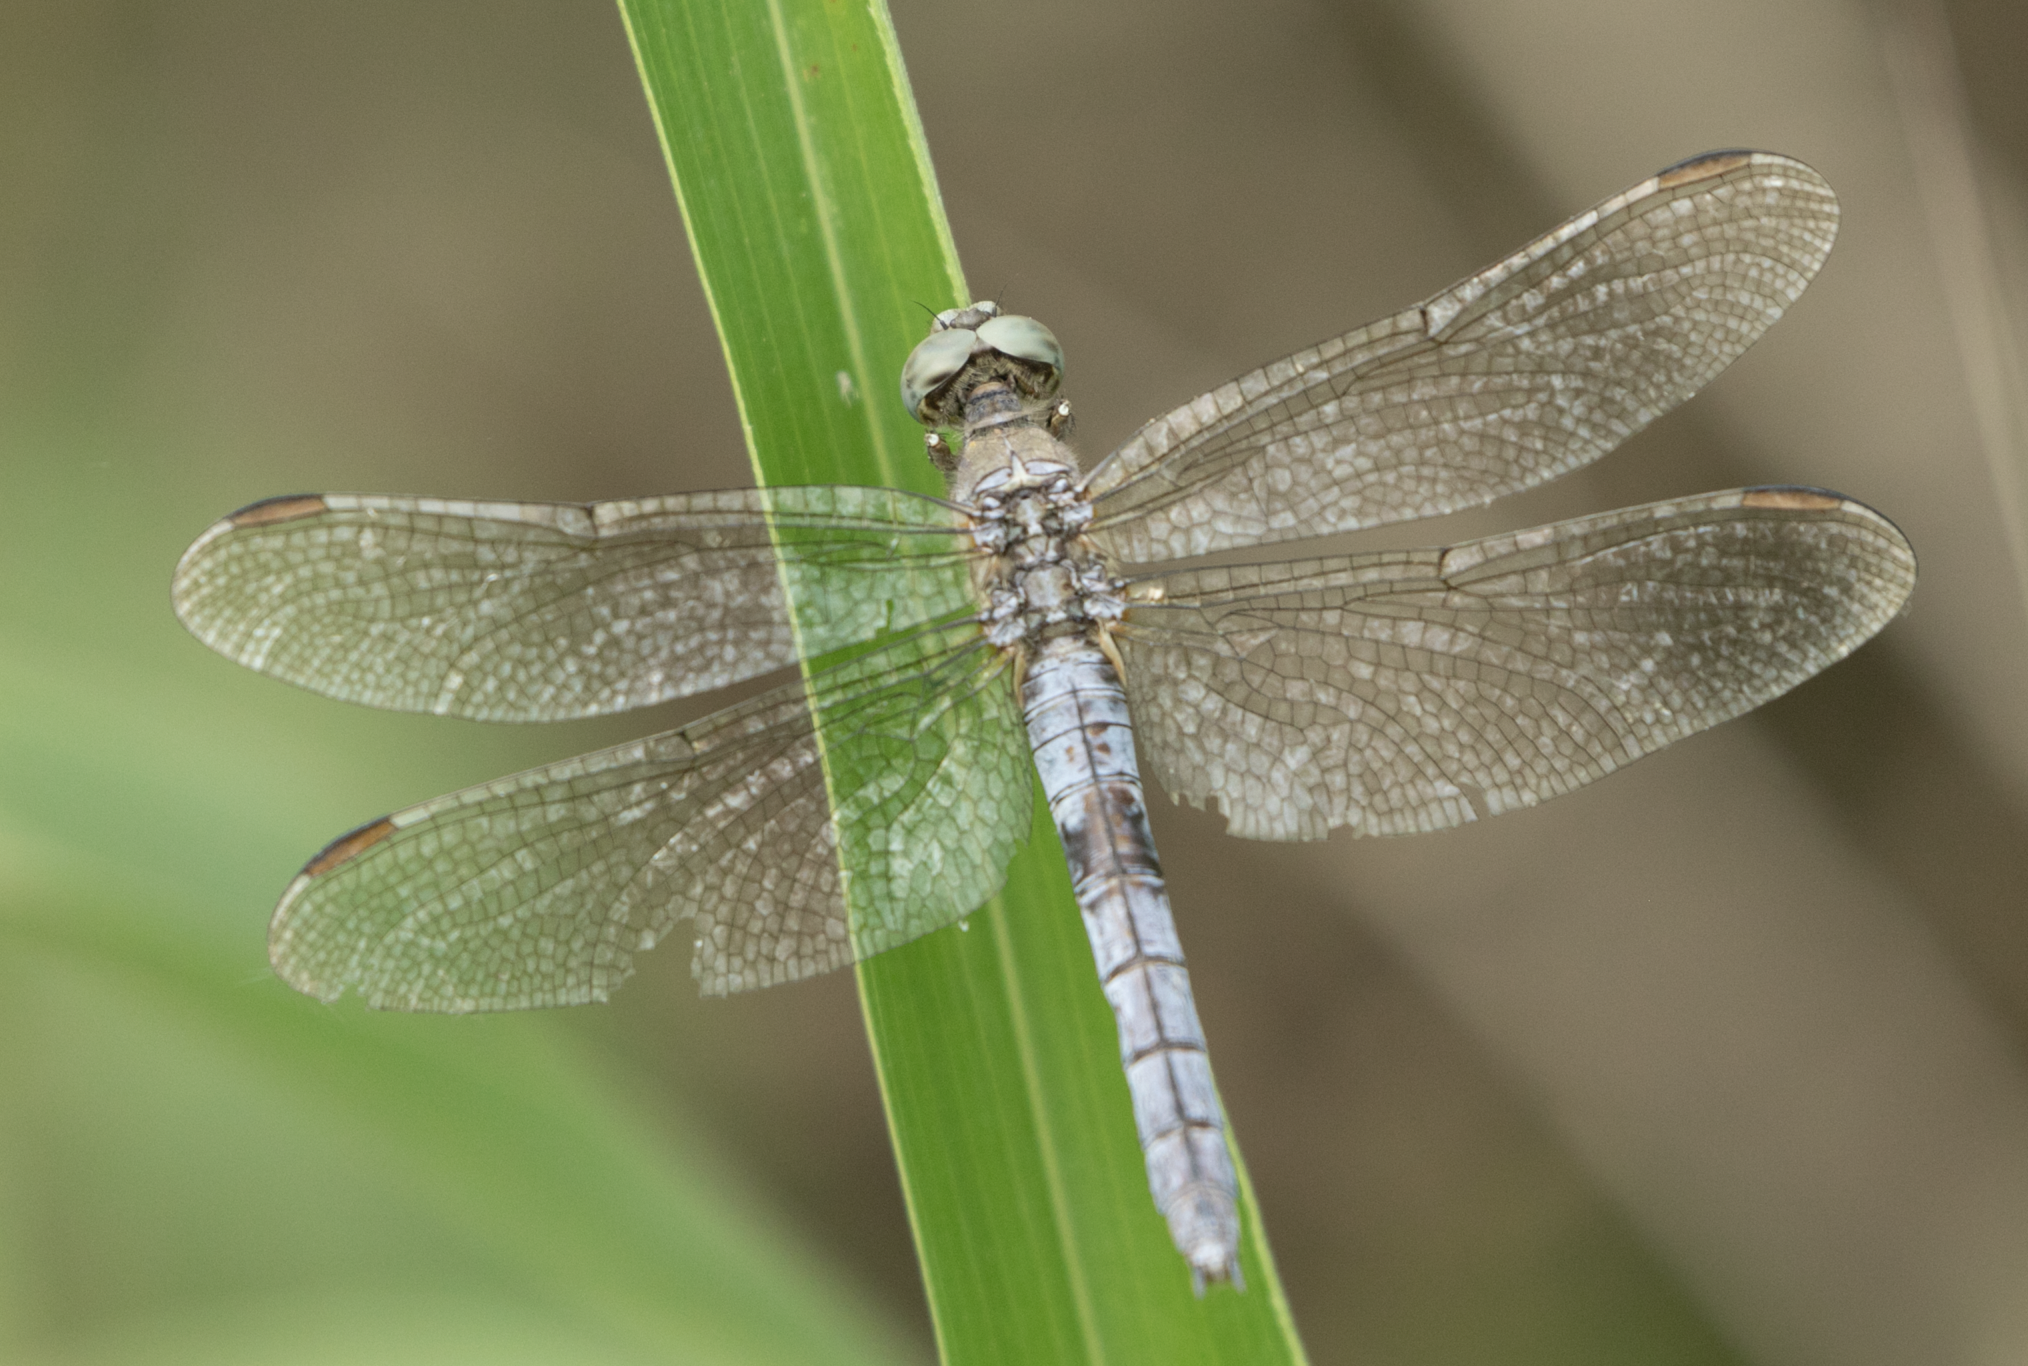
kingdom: Animalia
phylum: Arthropoda
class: Insecta
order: Odonata
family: Libellulidae
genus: Orthetrum
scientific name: Orthetrum coerulescens
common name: Keeled skimmer
